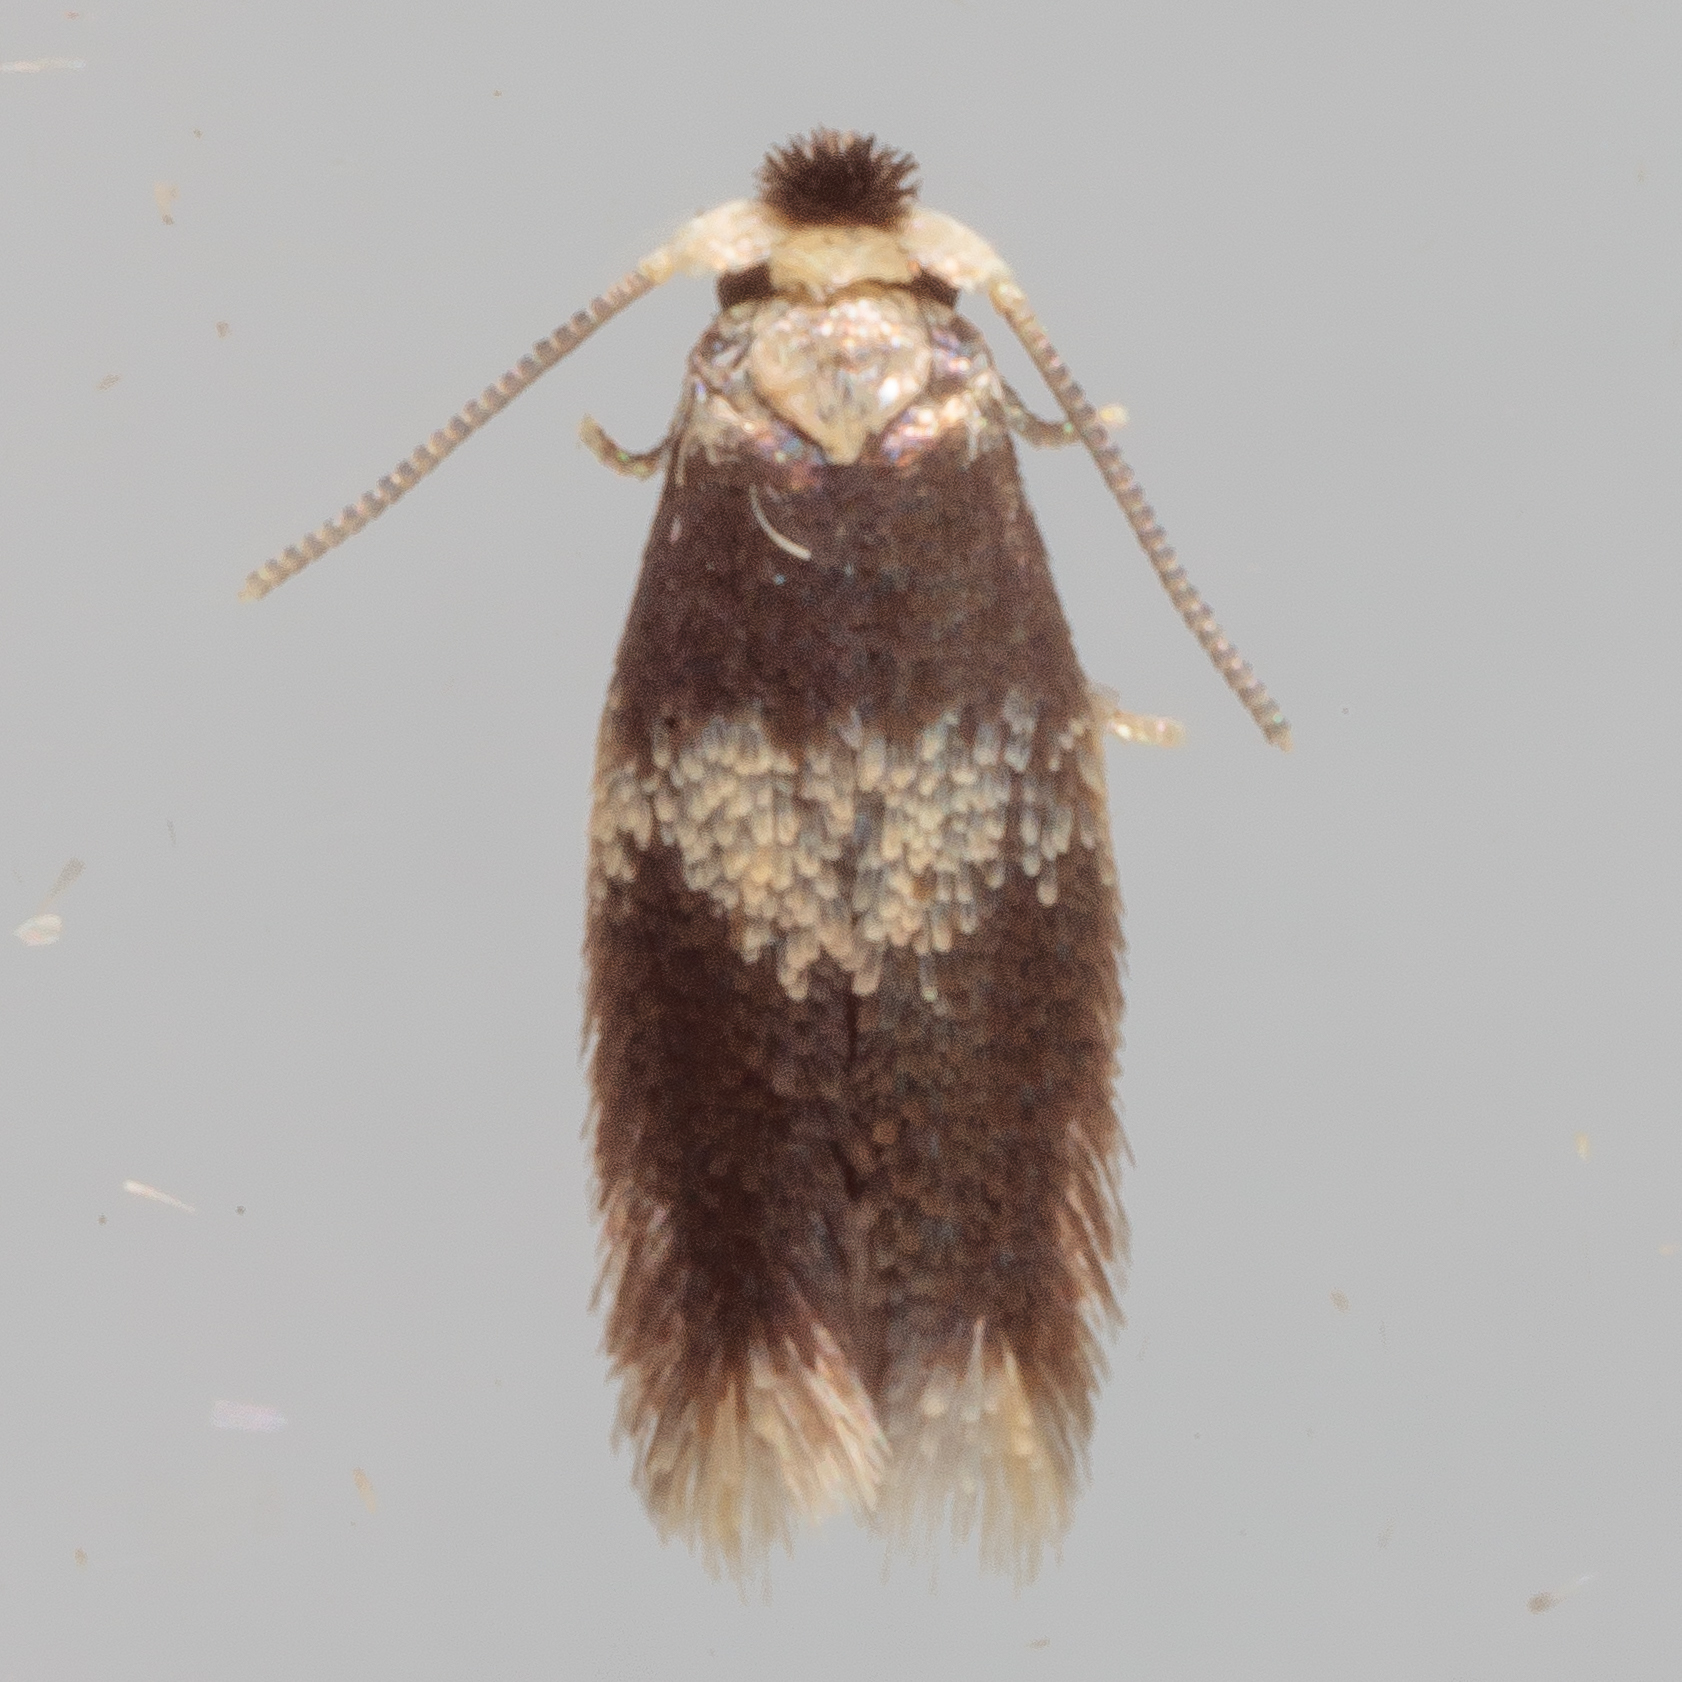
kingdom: Animalia
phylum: Arthropoda
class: Insecta
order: Lepidoptera
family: Nepticulidae
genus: Stigmella
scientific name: Stigmella nigriverticella
